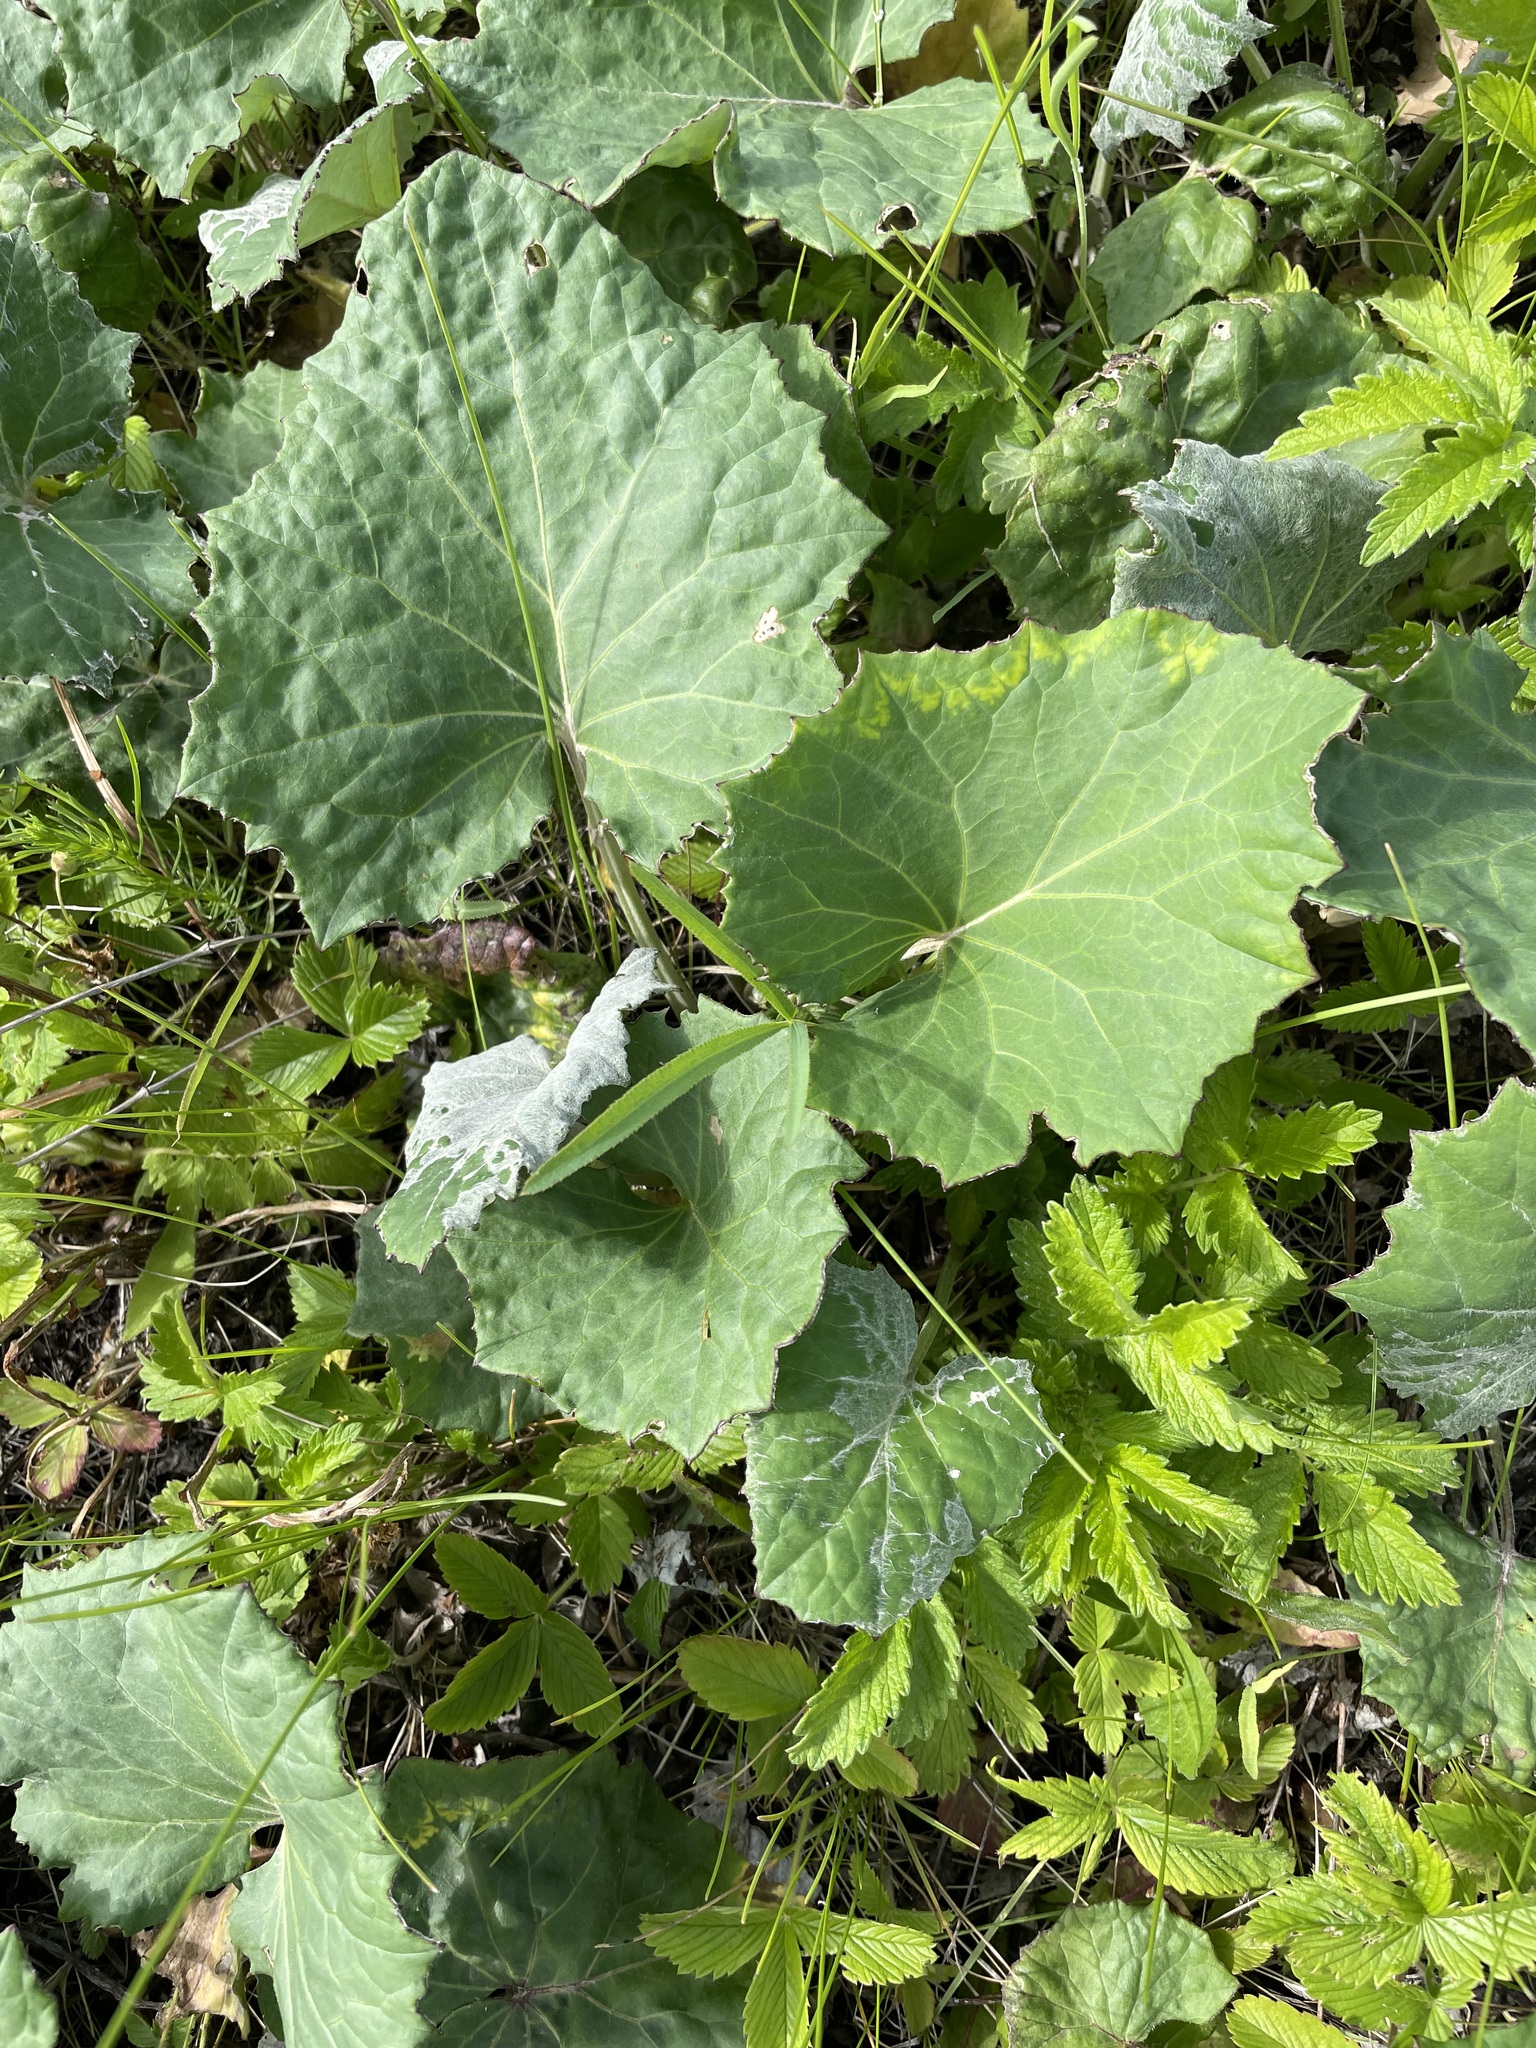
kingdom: Plantae
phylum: Tracheophyta
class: Magnoliopsida
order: Asterales
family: Asteraceae
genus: Tussilago
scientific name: Tussilago farfara
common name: Coltsfoot
